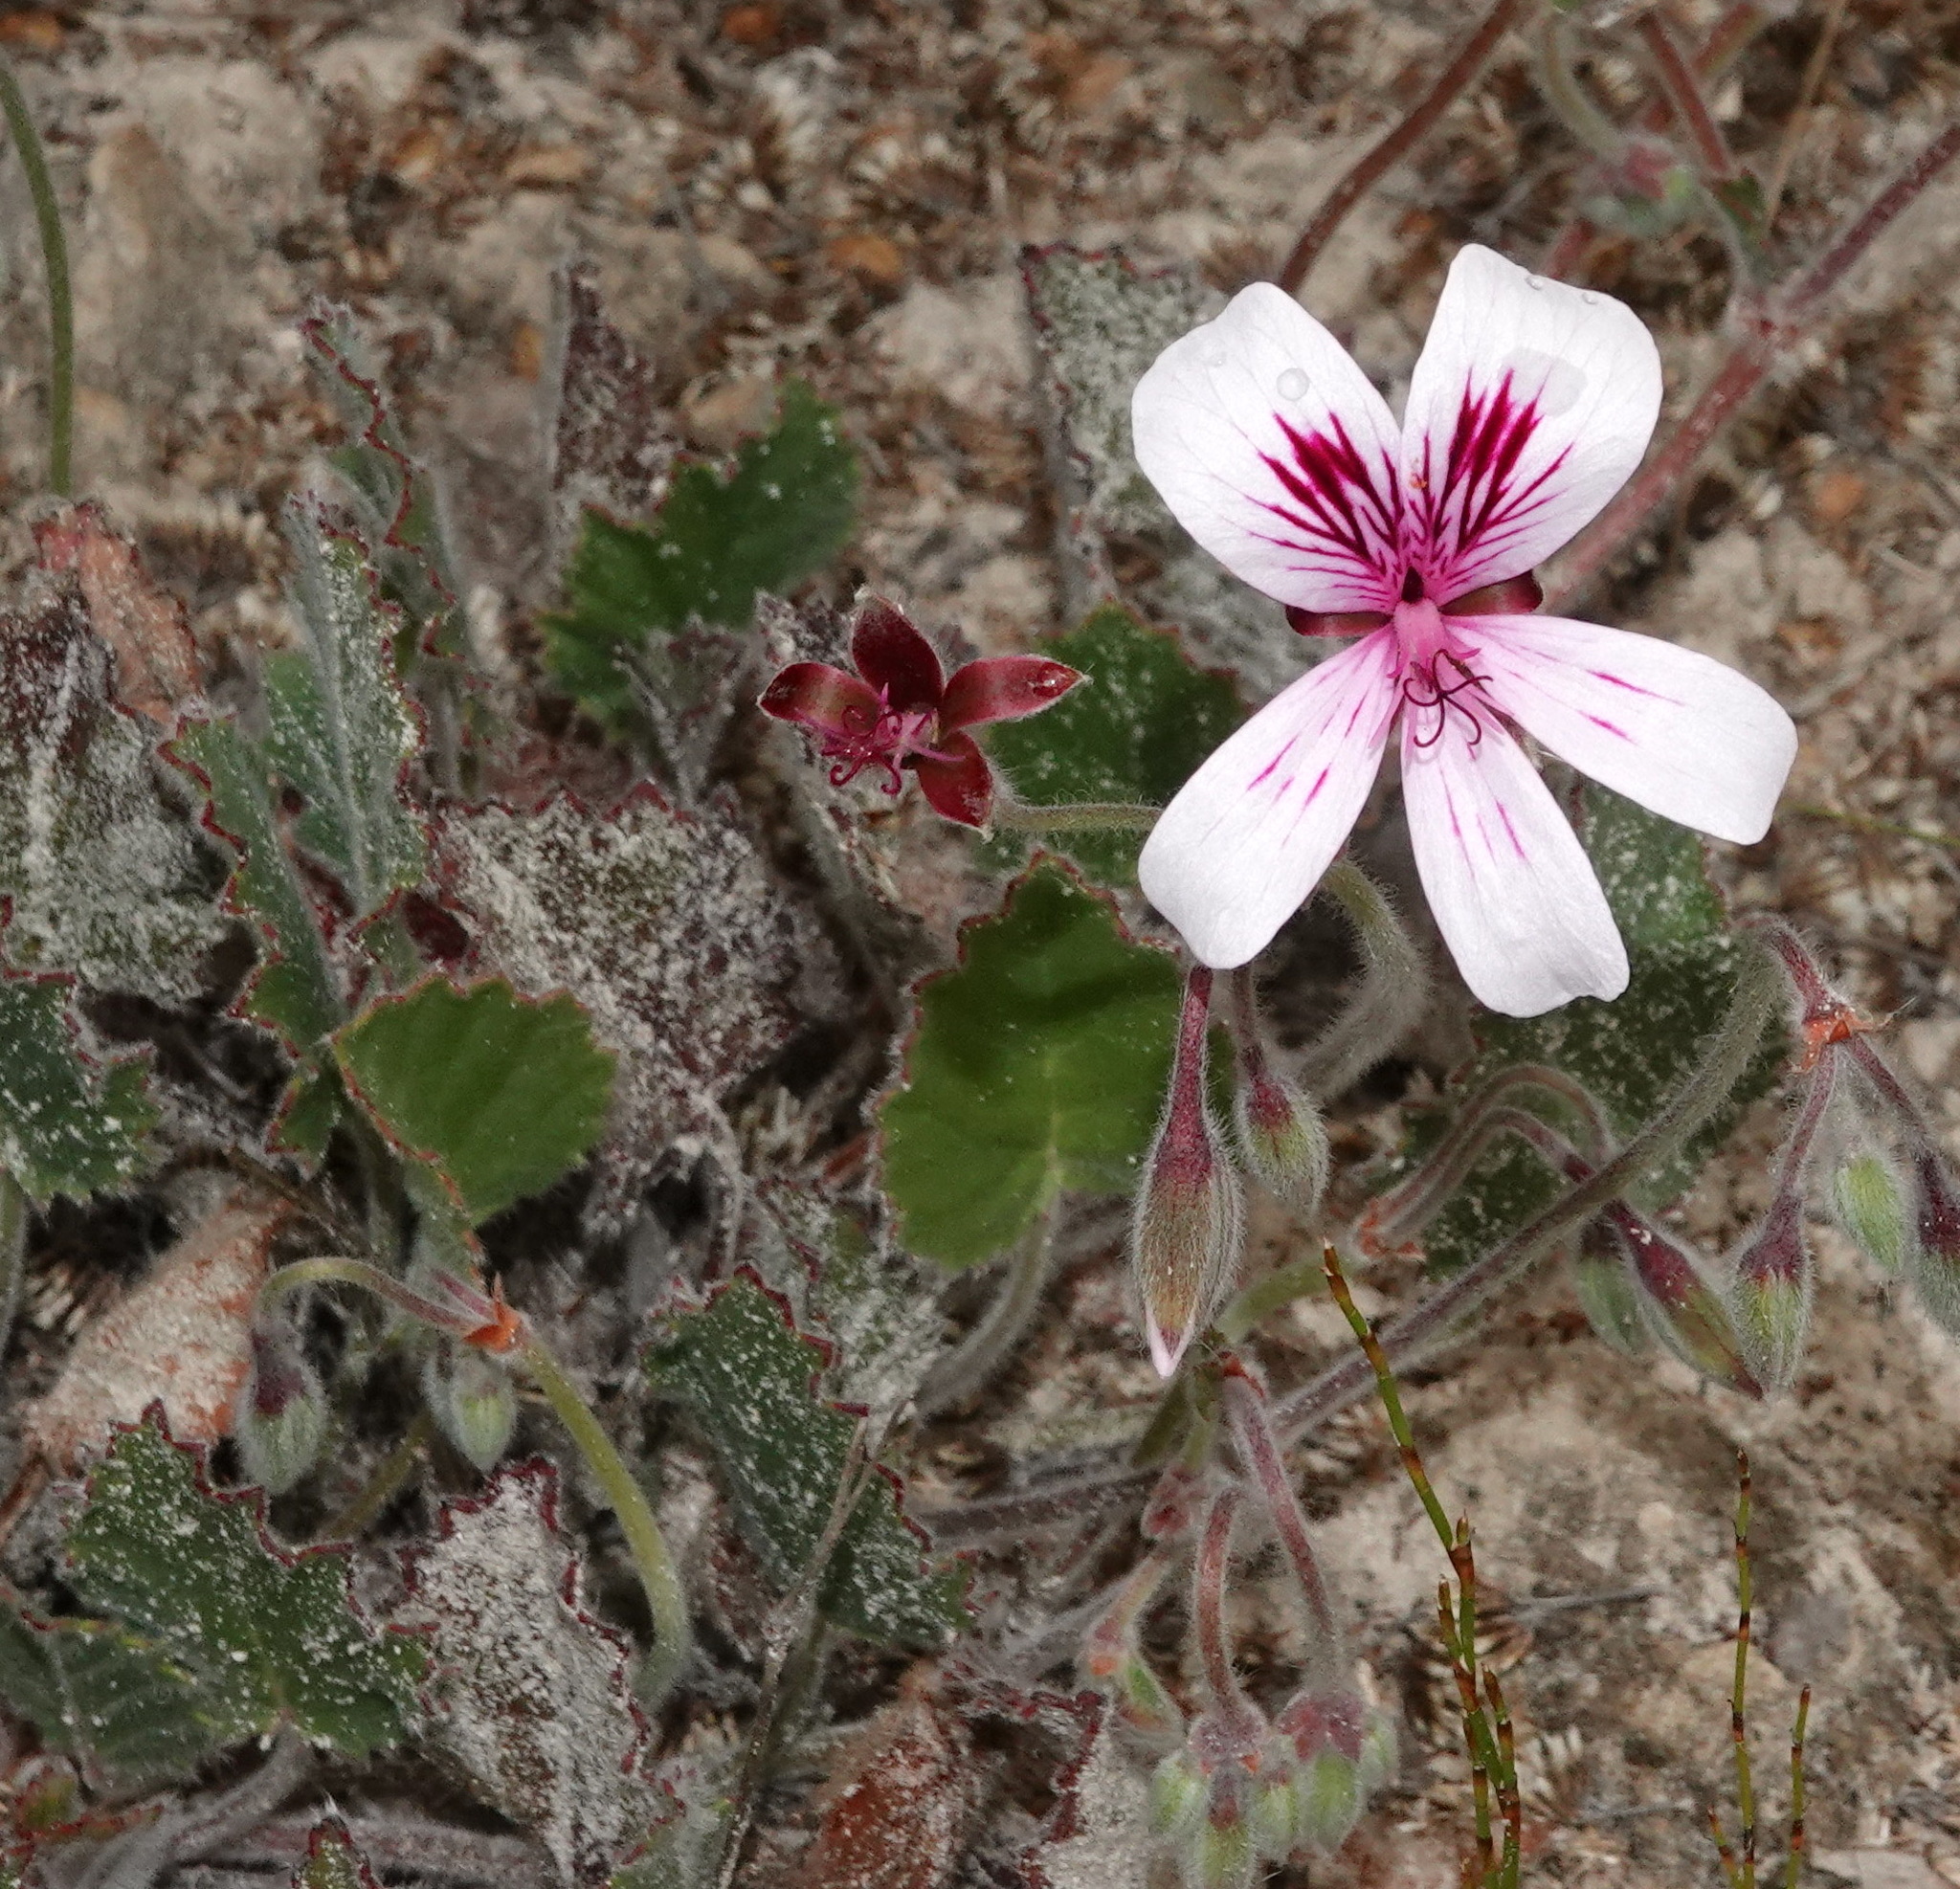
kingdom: Plantae
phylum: Tracheophyta
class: Magnoliopsida
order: Geraniales
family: Geraniaceae
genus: Pelargonium
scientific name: Pelargonium elegans
